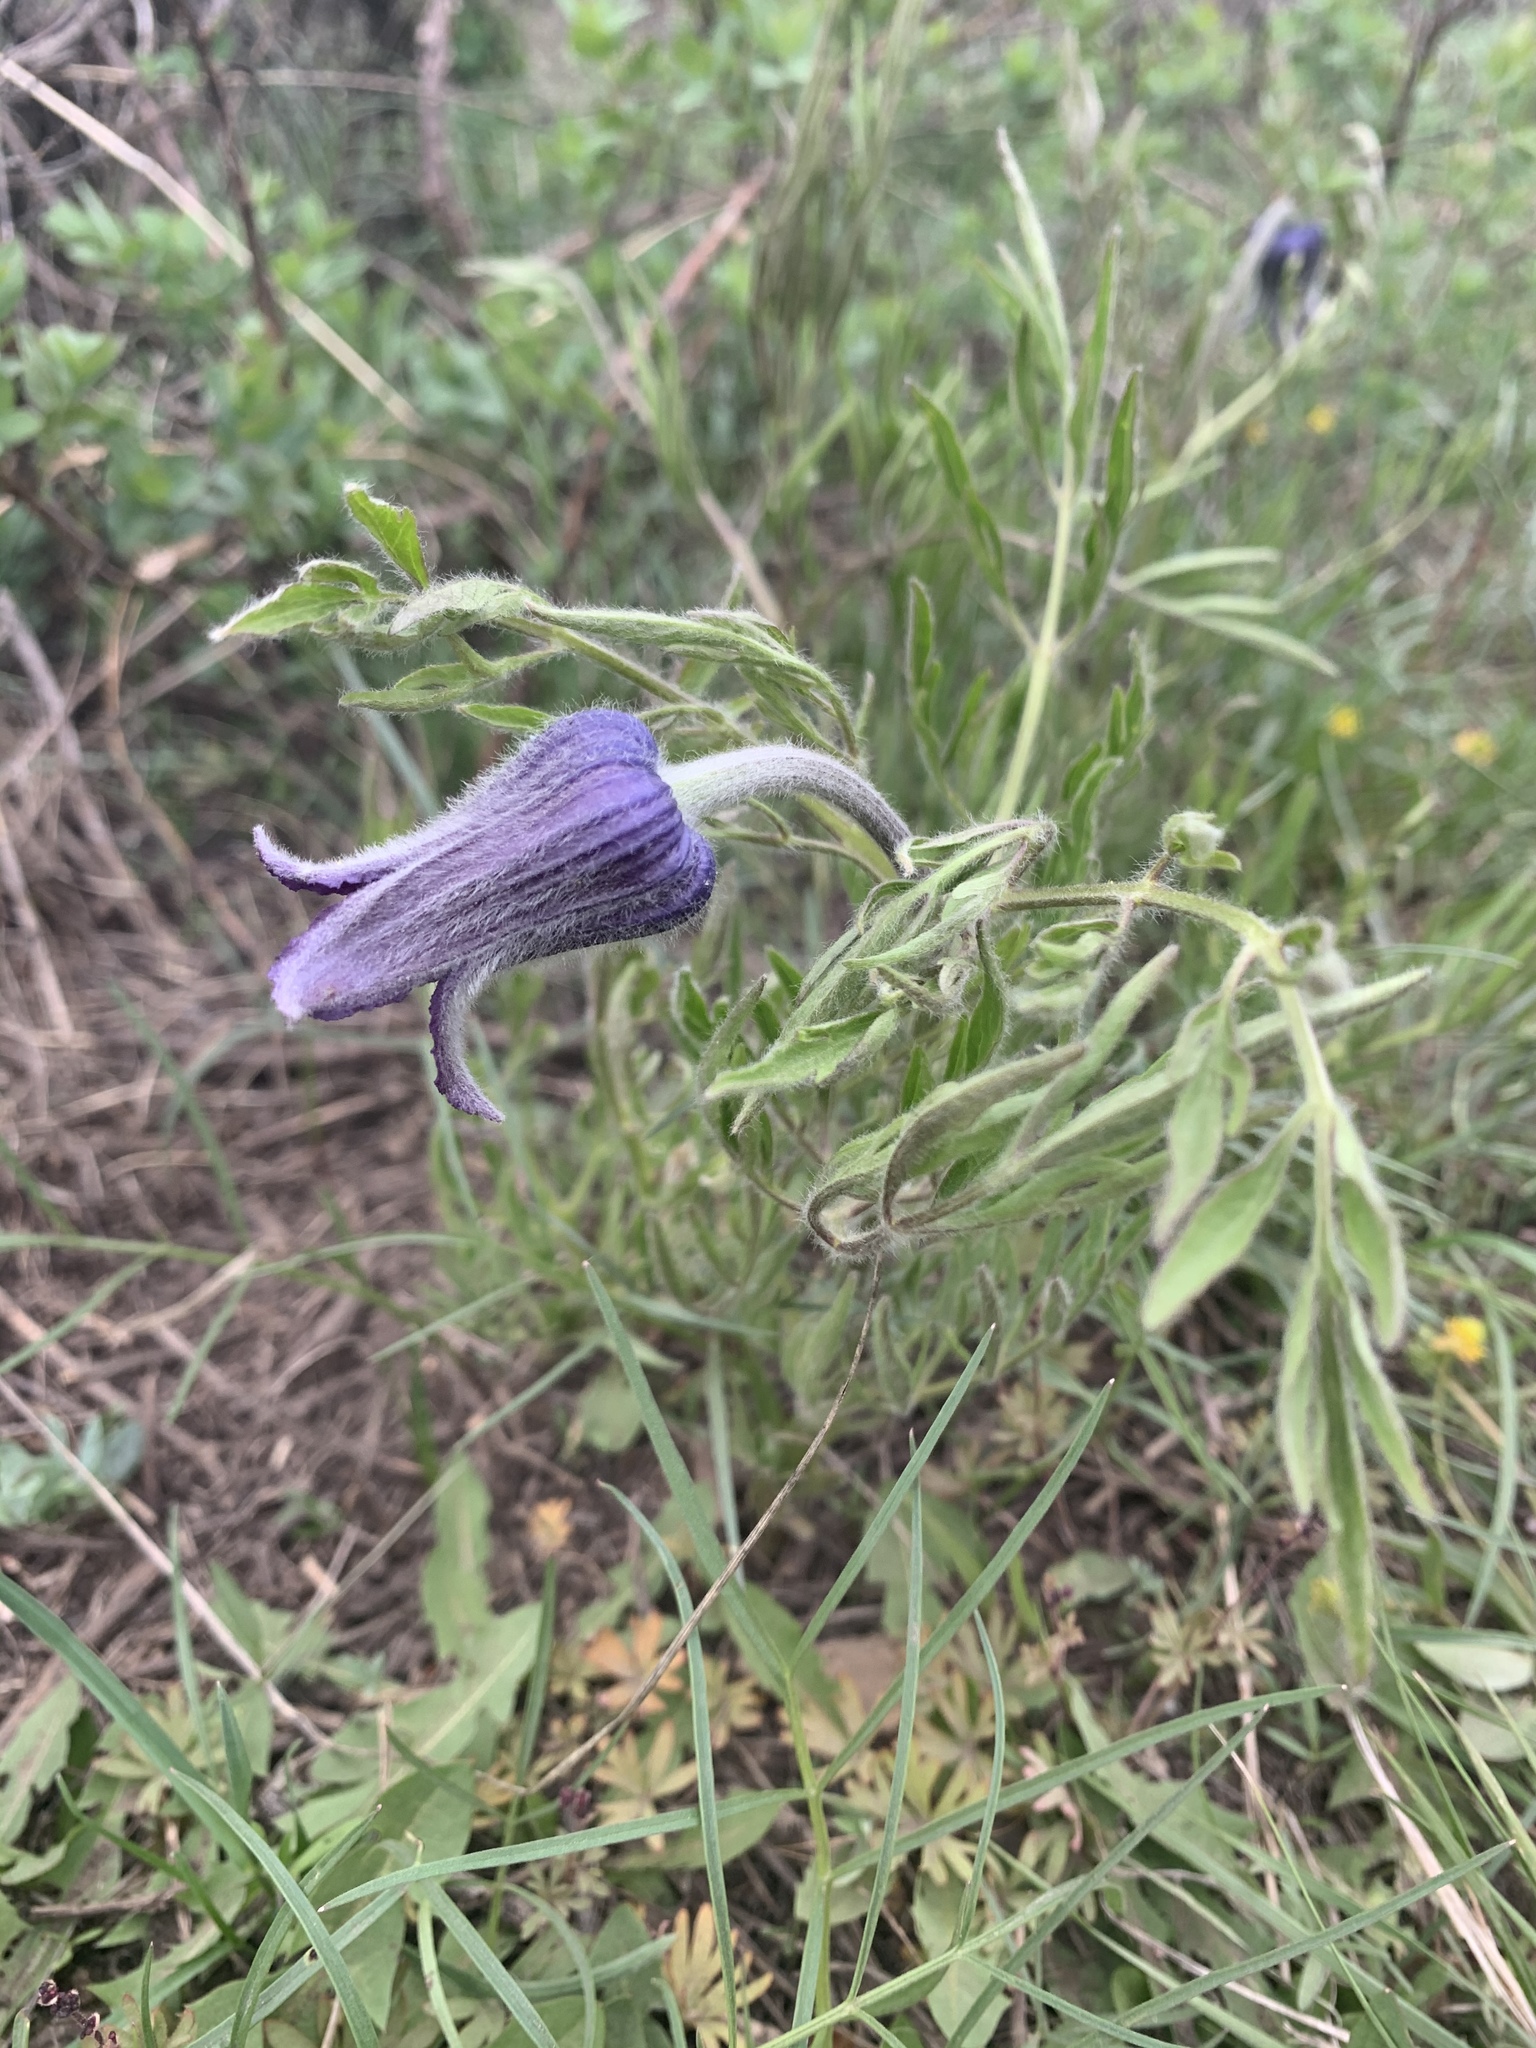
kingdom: Plantae
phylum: Tracheophyta
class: Magnoliopsida
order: Ranunculales
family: Ranunculaceae
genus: Clematis
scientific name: Clematis hirsutissima
